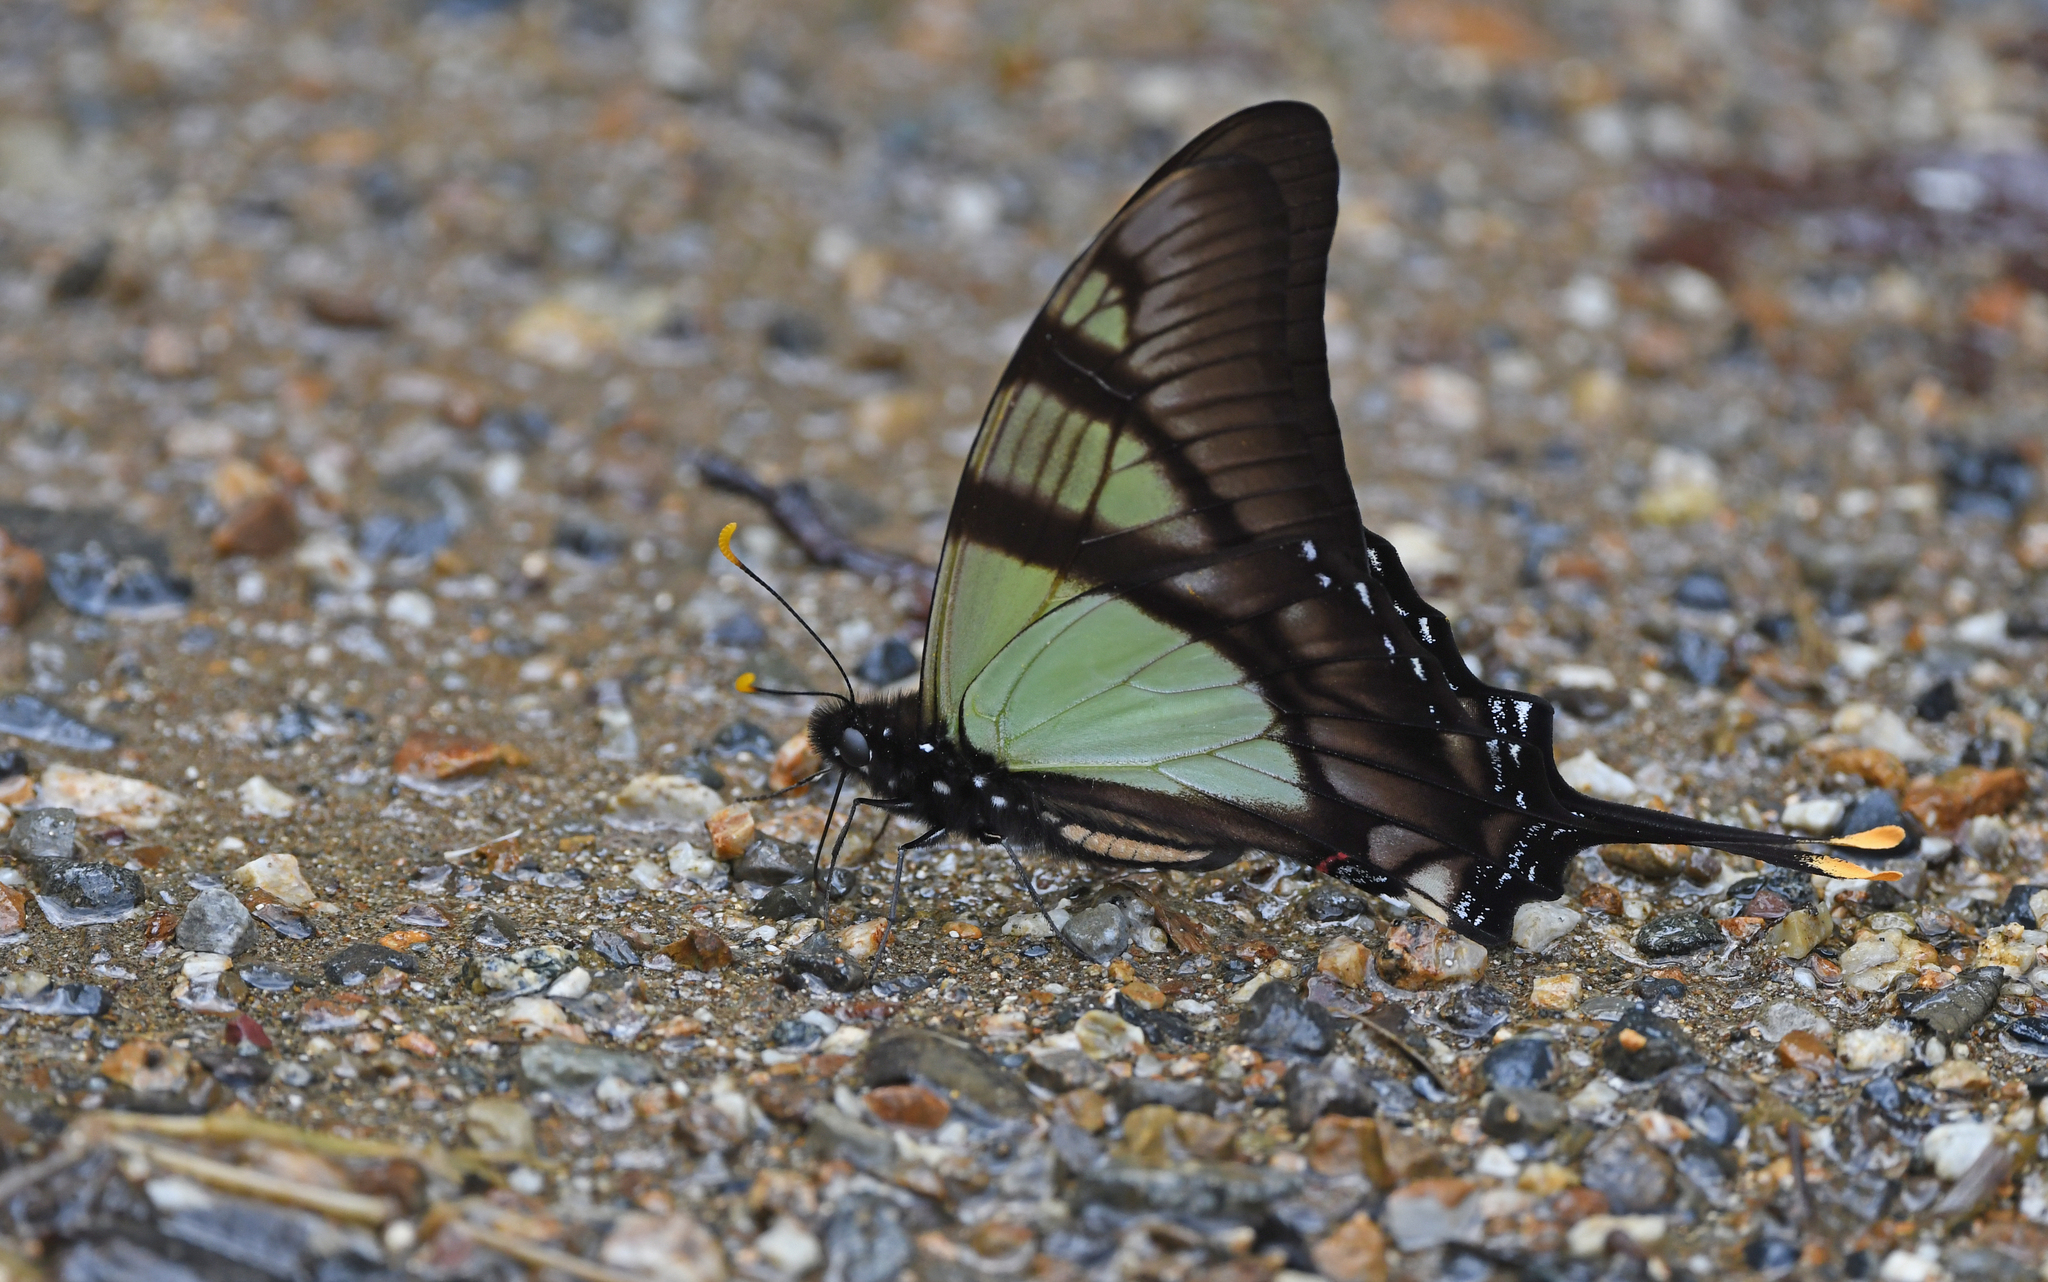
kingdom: Animalia
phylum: Arthropoda
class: Insecta
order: Lepidoptera
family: Papilionidae
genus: Eurytides
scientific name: Eurytides serville
